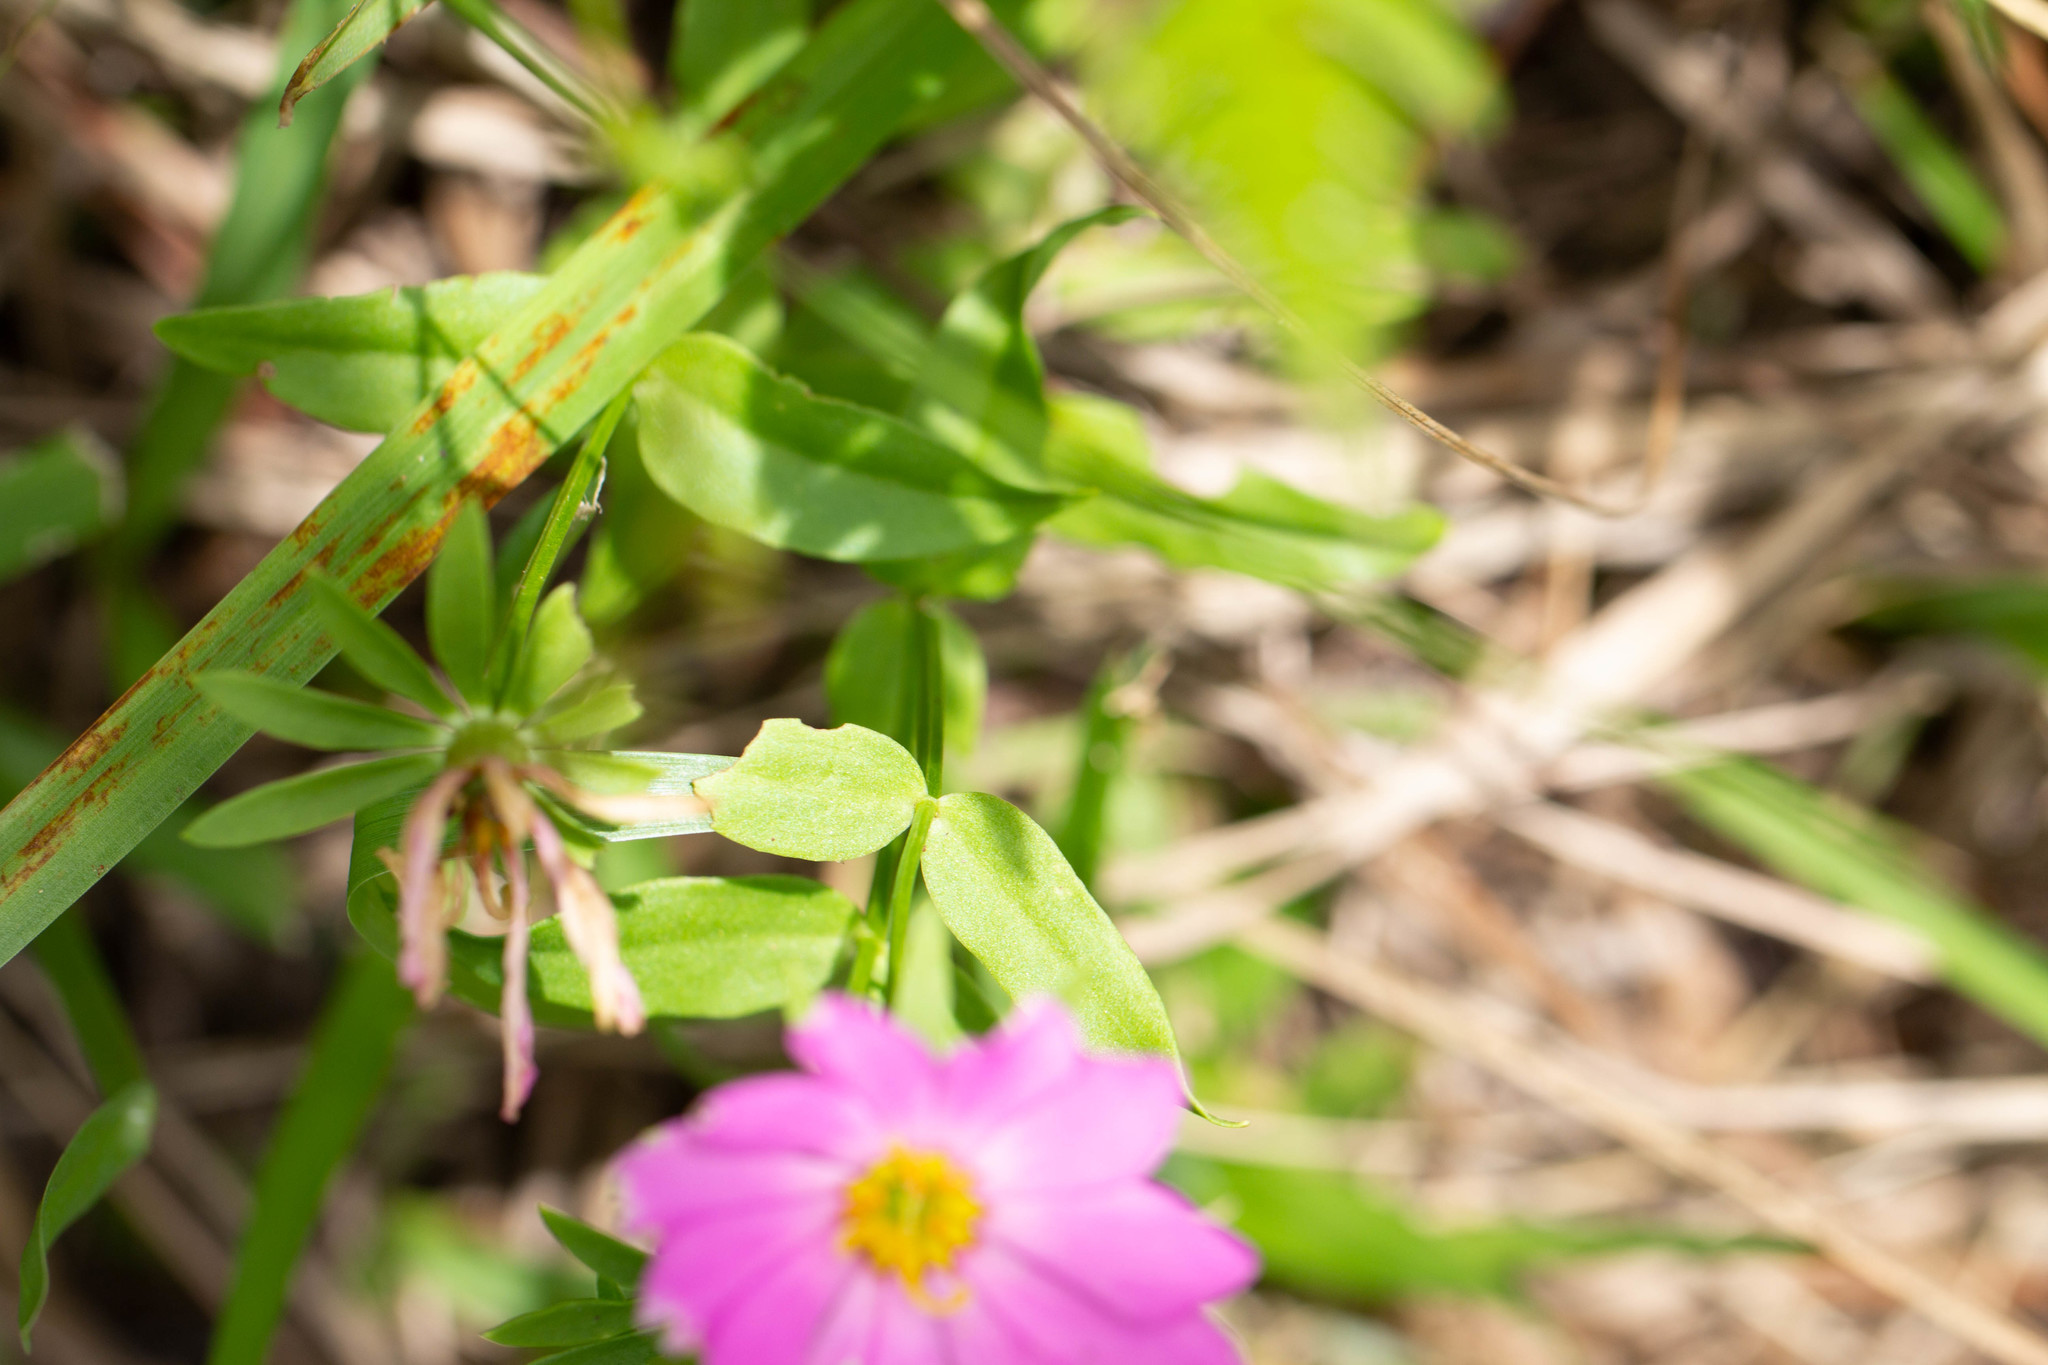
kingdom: Plantae
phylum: Tracheophyta
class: Magnoliopsida
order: Gentianales
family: Gentianaceae
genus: Sabatia
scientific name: Sabatia dodecandra
